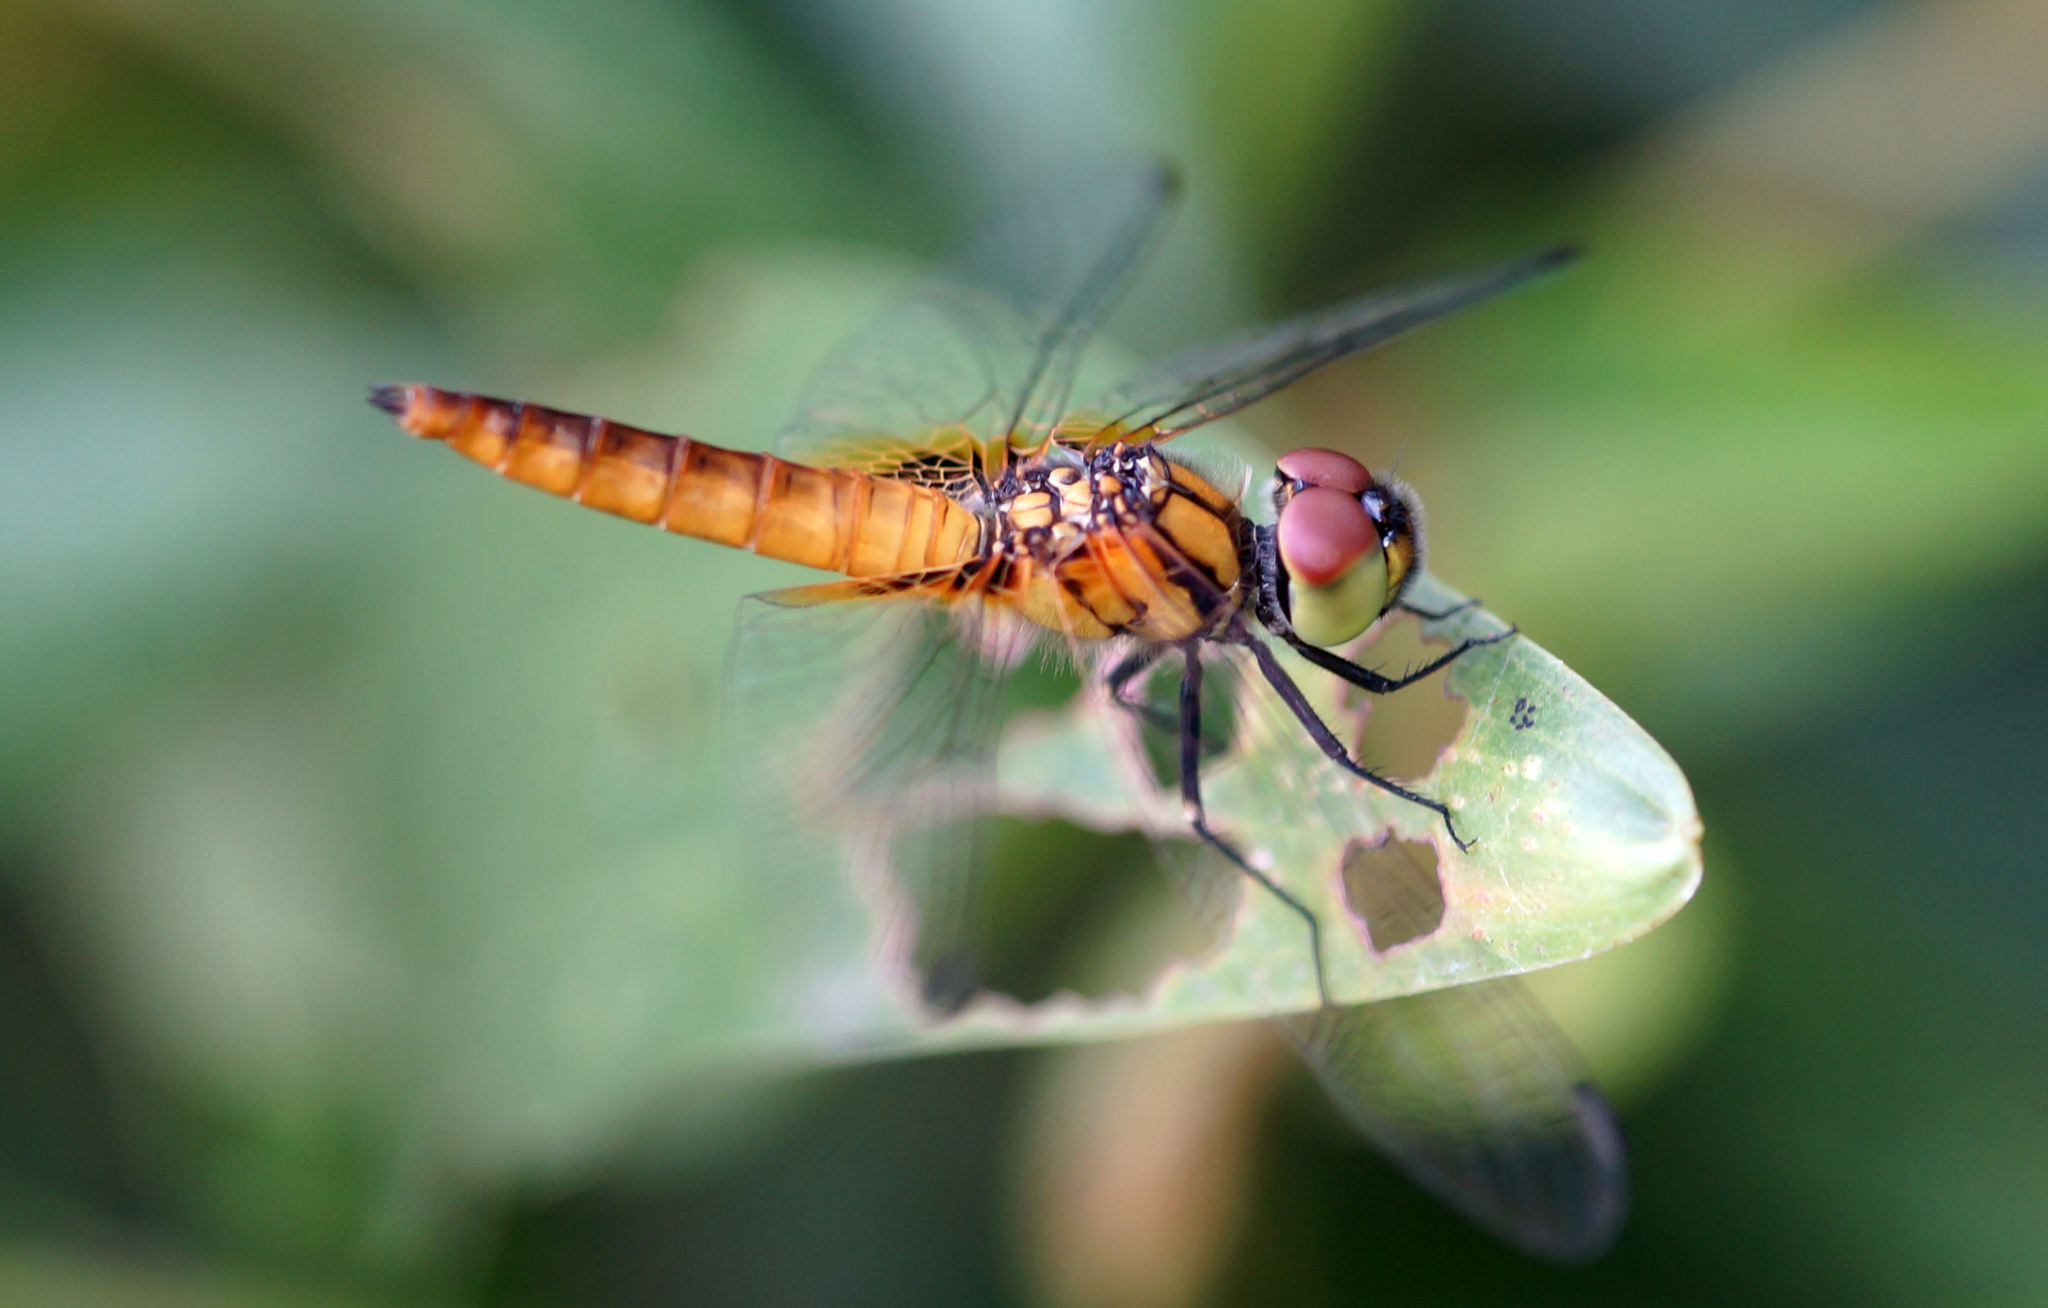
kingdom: Animalia
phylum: Arthropoda
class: Insecta
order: Odonata
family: Libellulidae
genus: Aethriamanta
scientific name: Aethriamanta brevipennis
